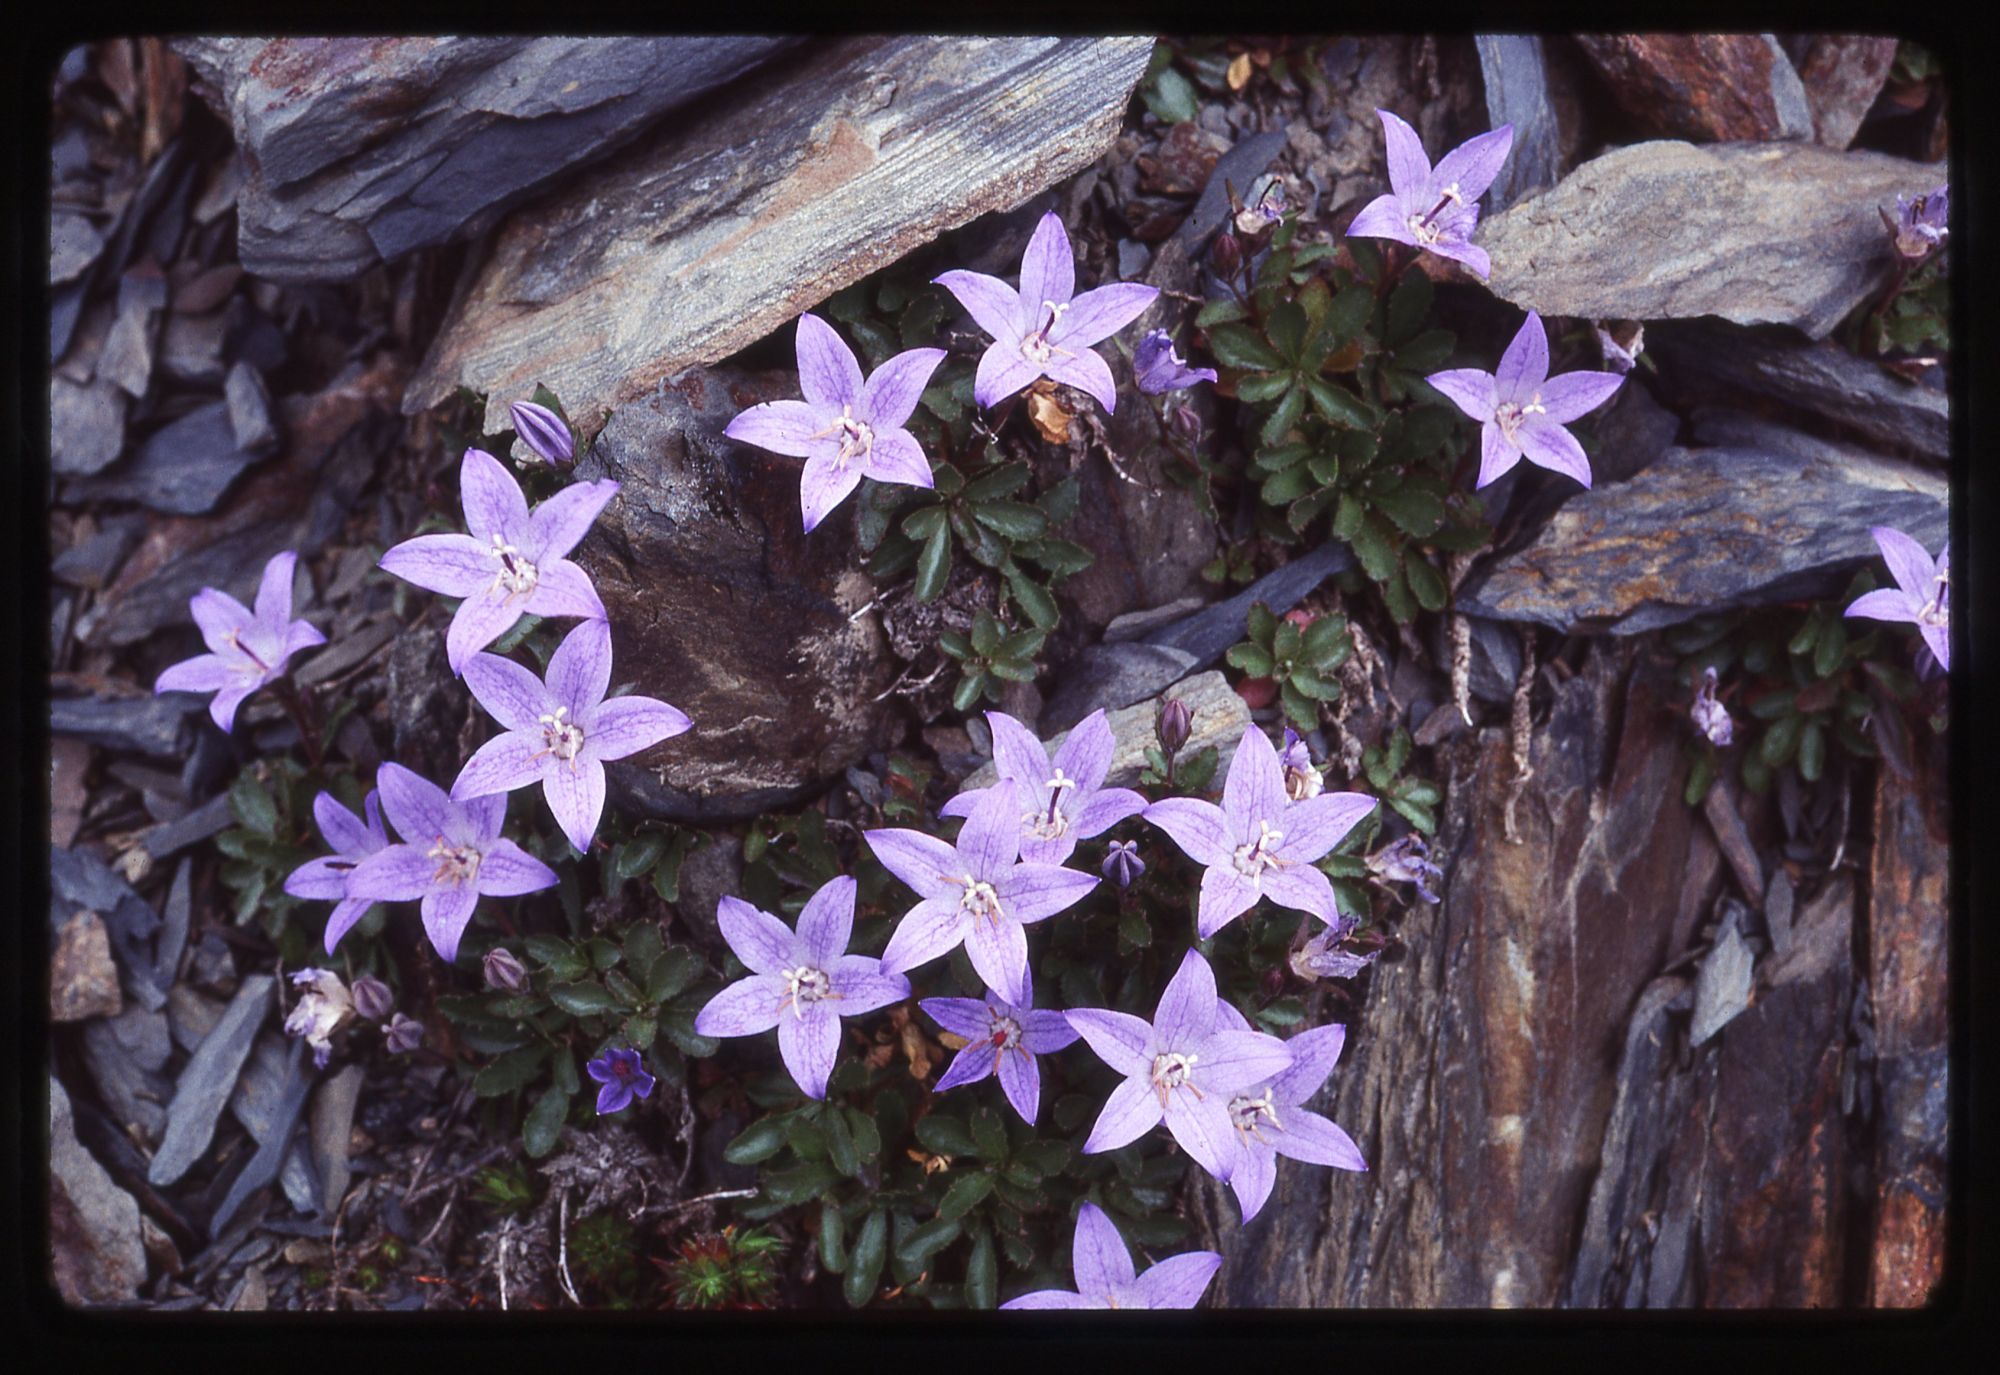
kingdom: Plantae
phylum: Tracheophyta
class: Magnoliopsida
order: Asterales
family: Campanulaceae
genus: Campanula
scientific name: Campanula piperi
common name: Olympic bellflower
